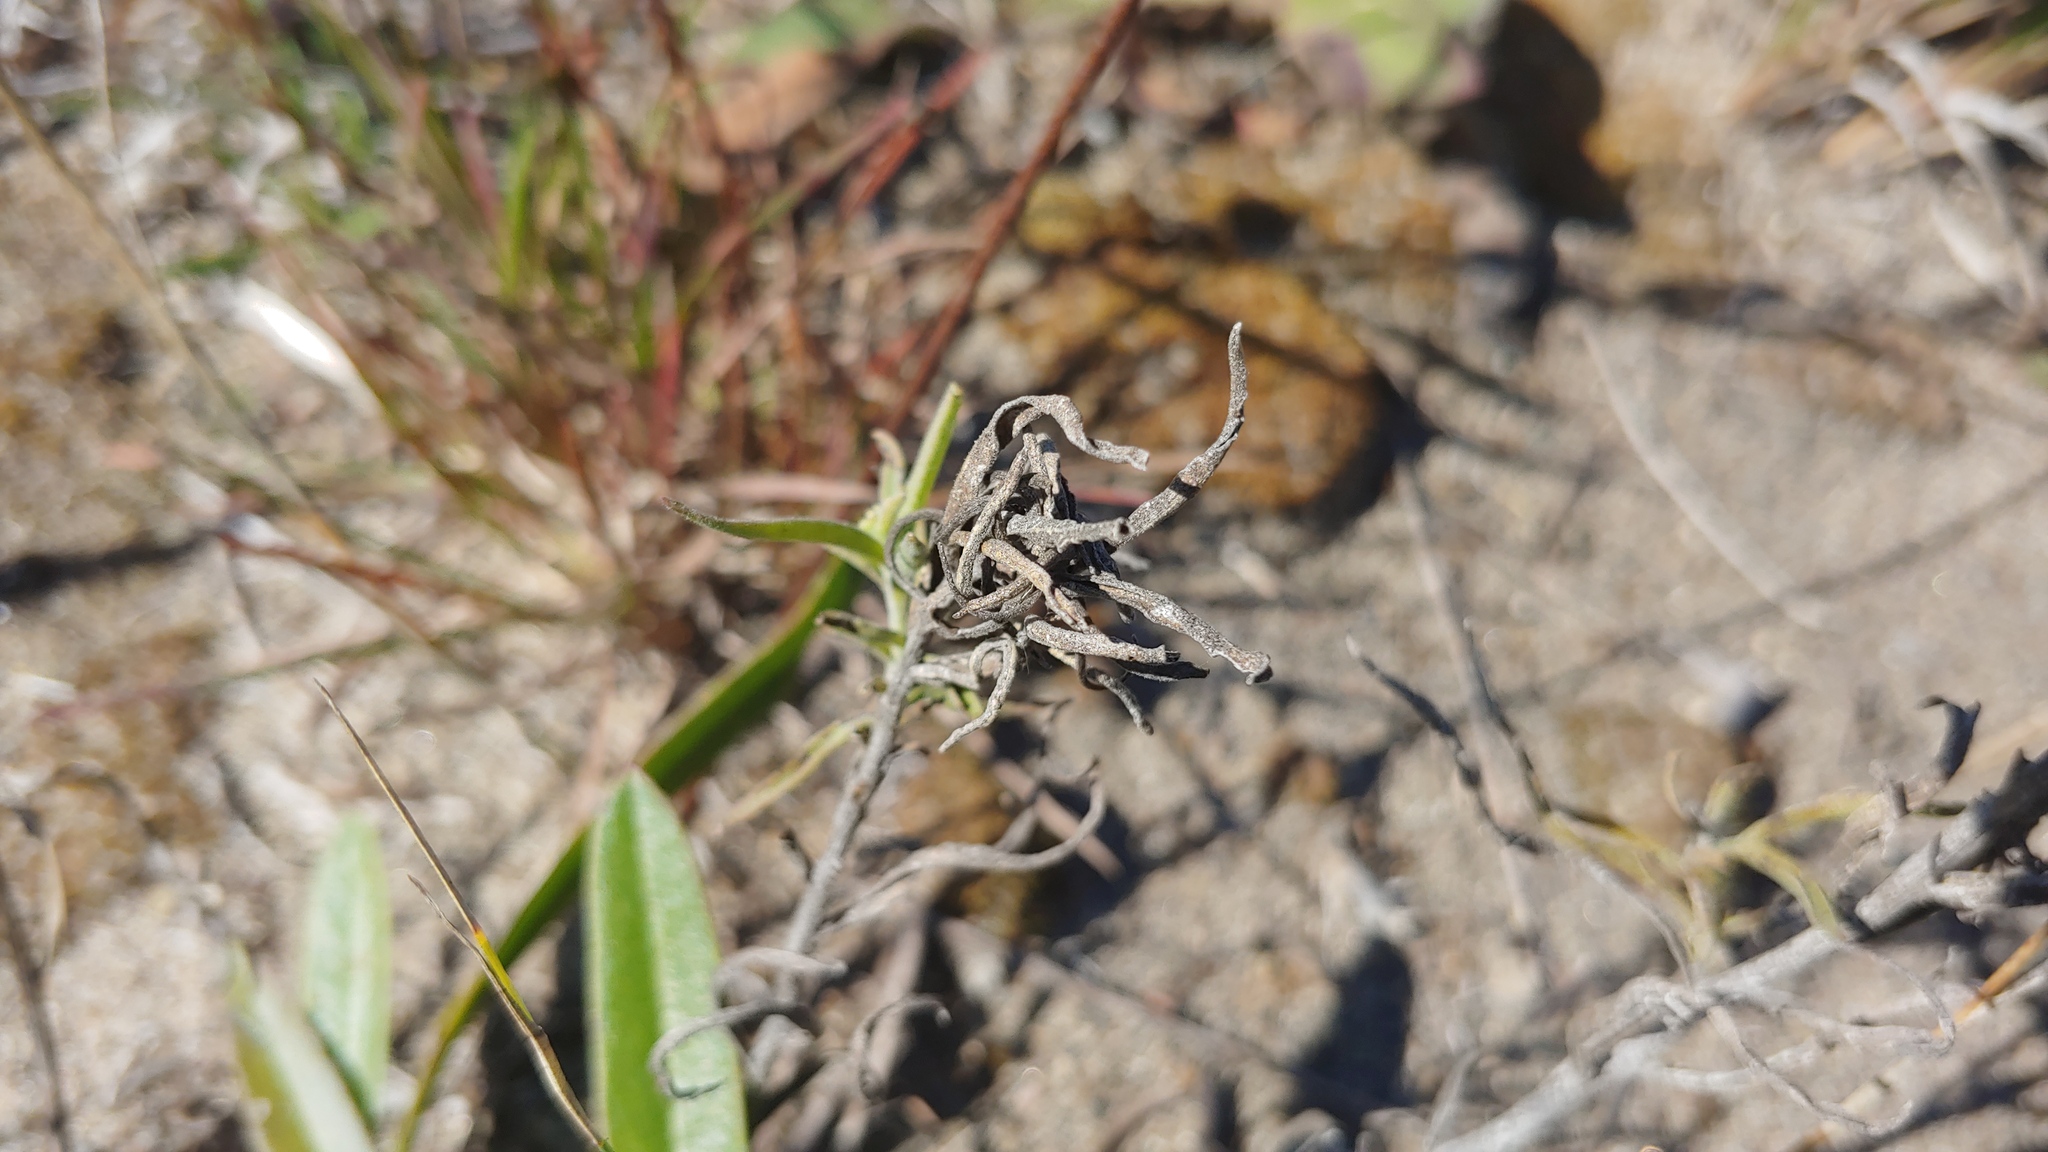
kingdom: Plantae
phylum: Tracheophyta
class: Magnoliopsida
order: Lamiales
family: Orobanchaceae
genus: Castilleja
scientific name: Castilleja sessiliflora
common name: Downy paintbrush
